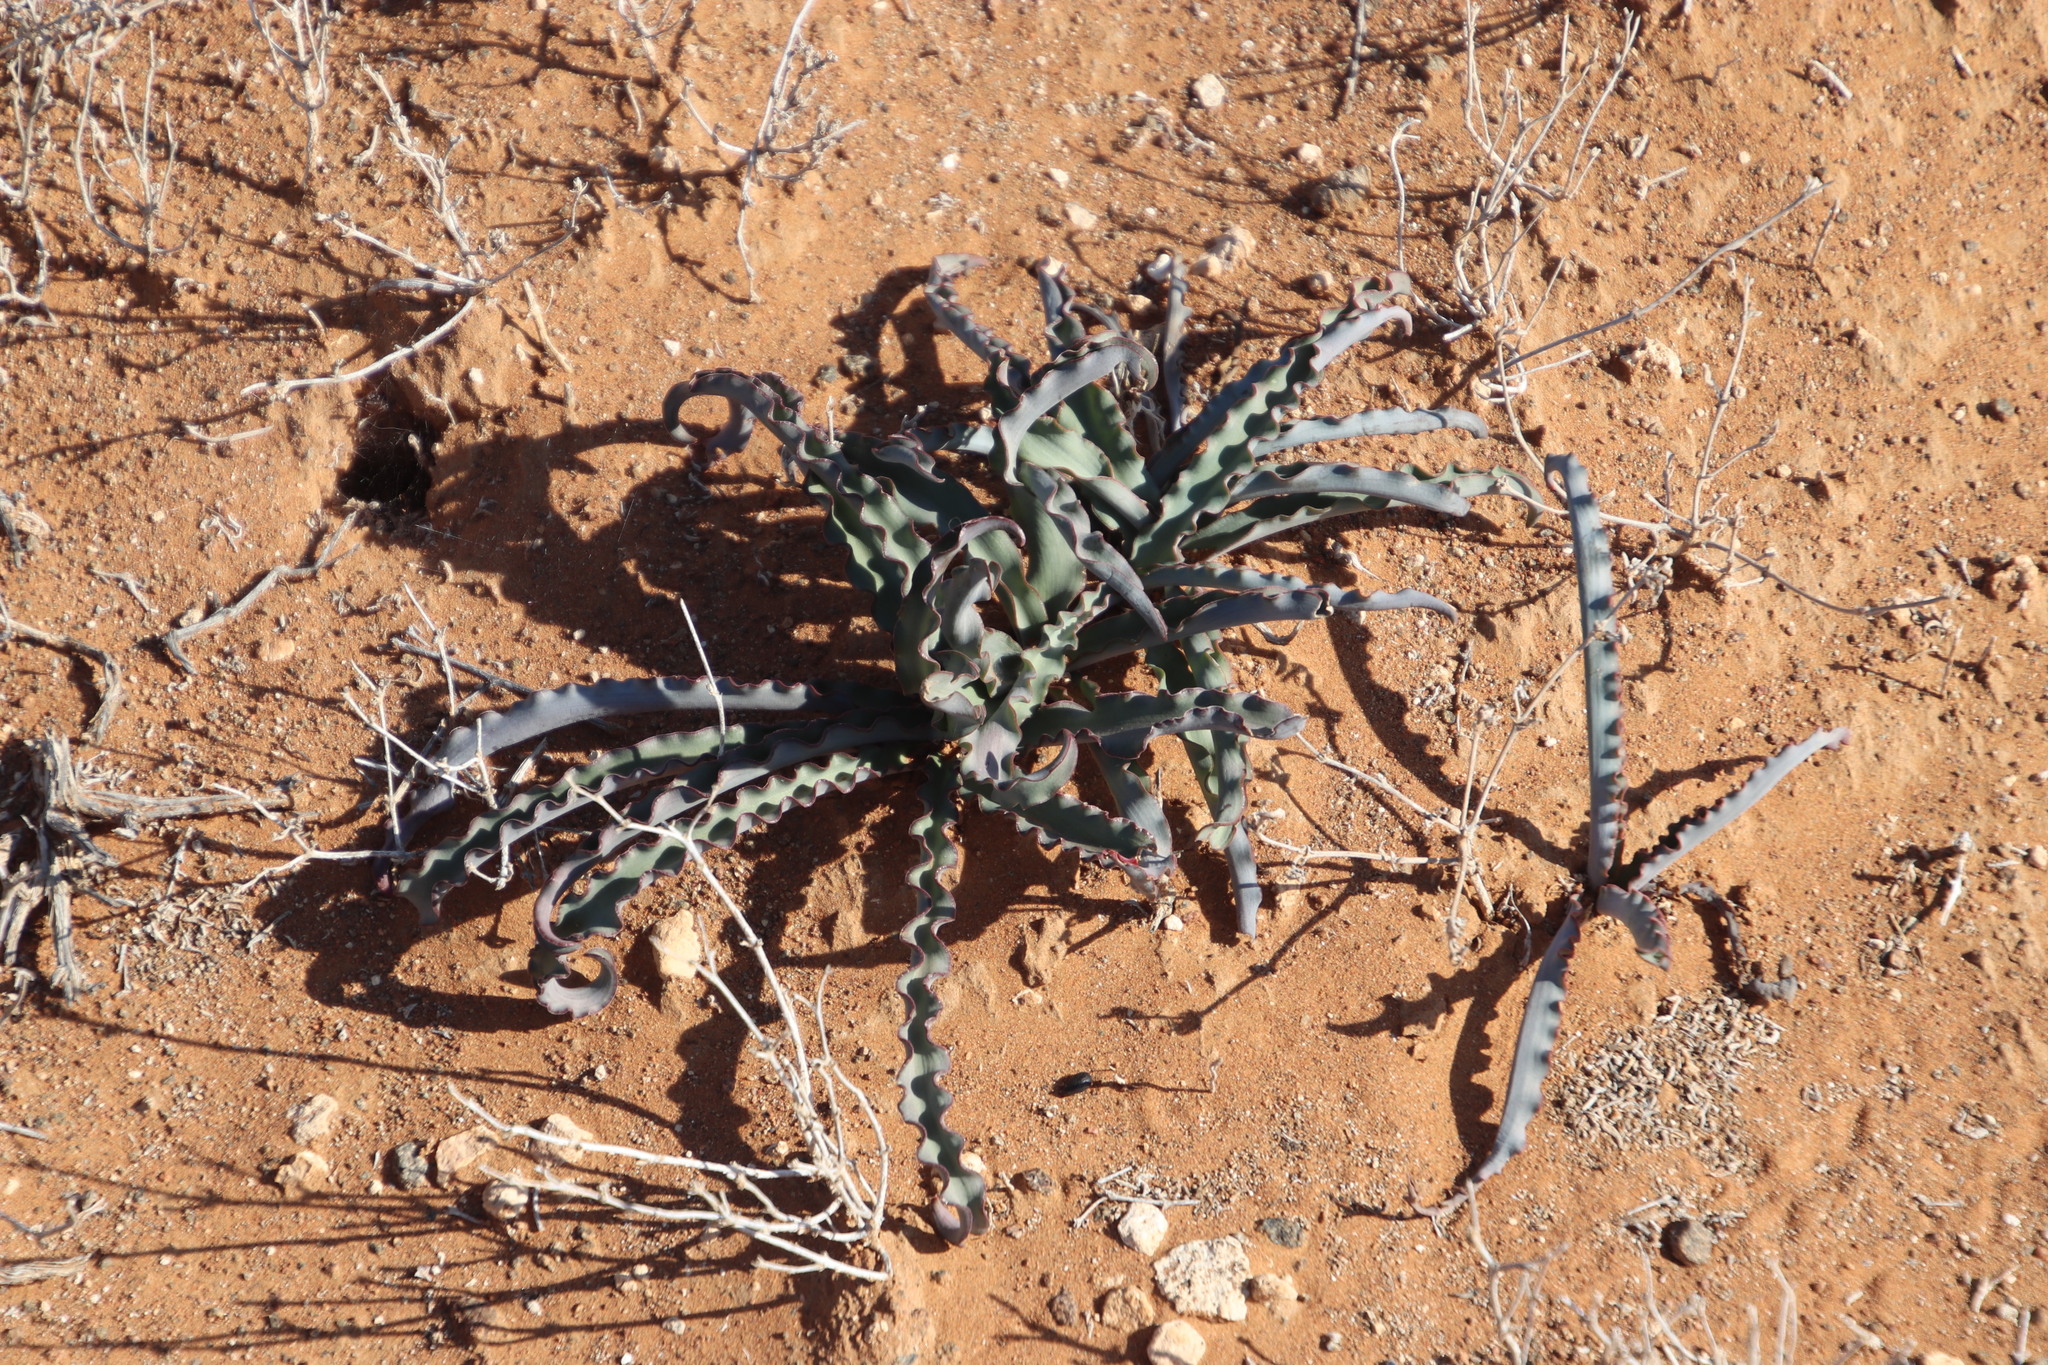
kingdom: Plantae
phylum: Tracheophyta
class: Liliopsida
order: Liliales
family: Colchicaceae
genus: Ornithoglossum
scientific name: Ornithoglossum undulatum
